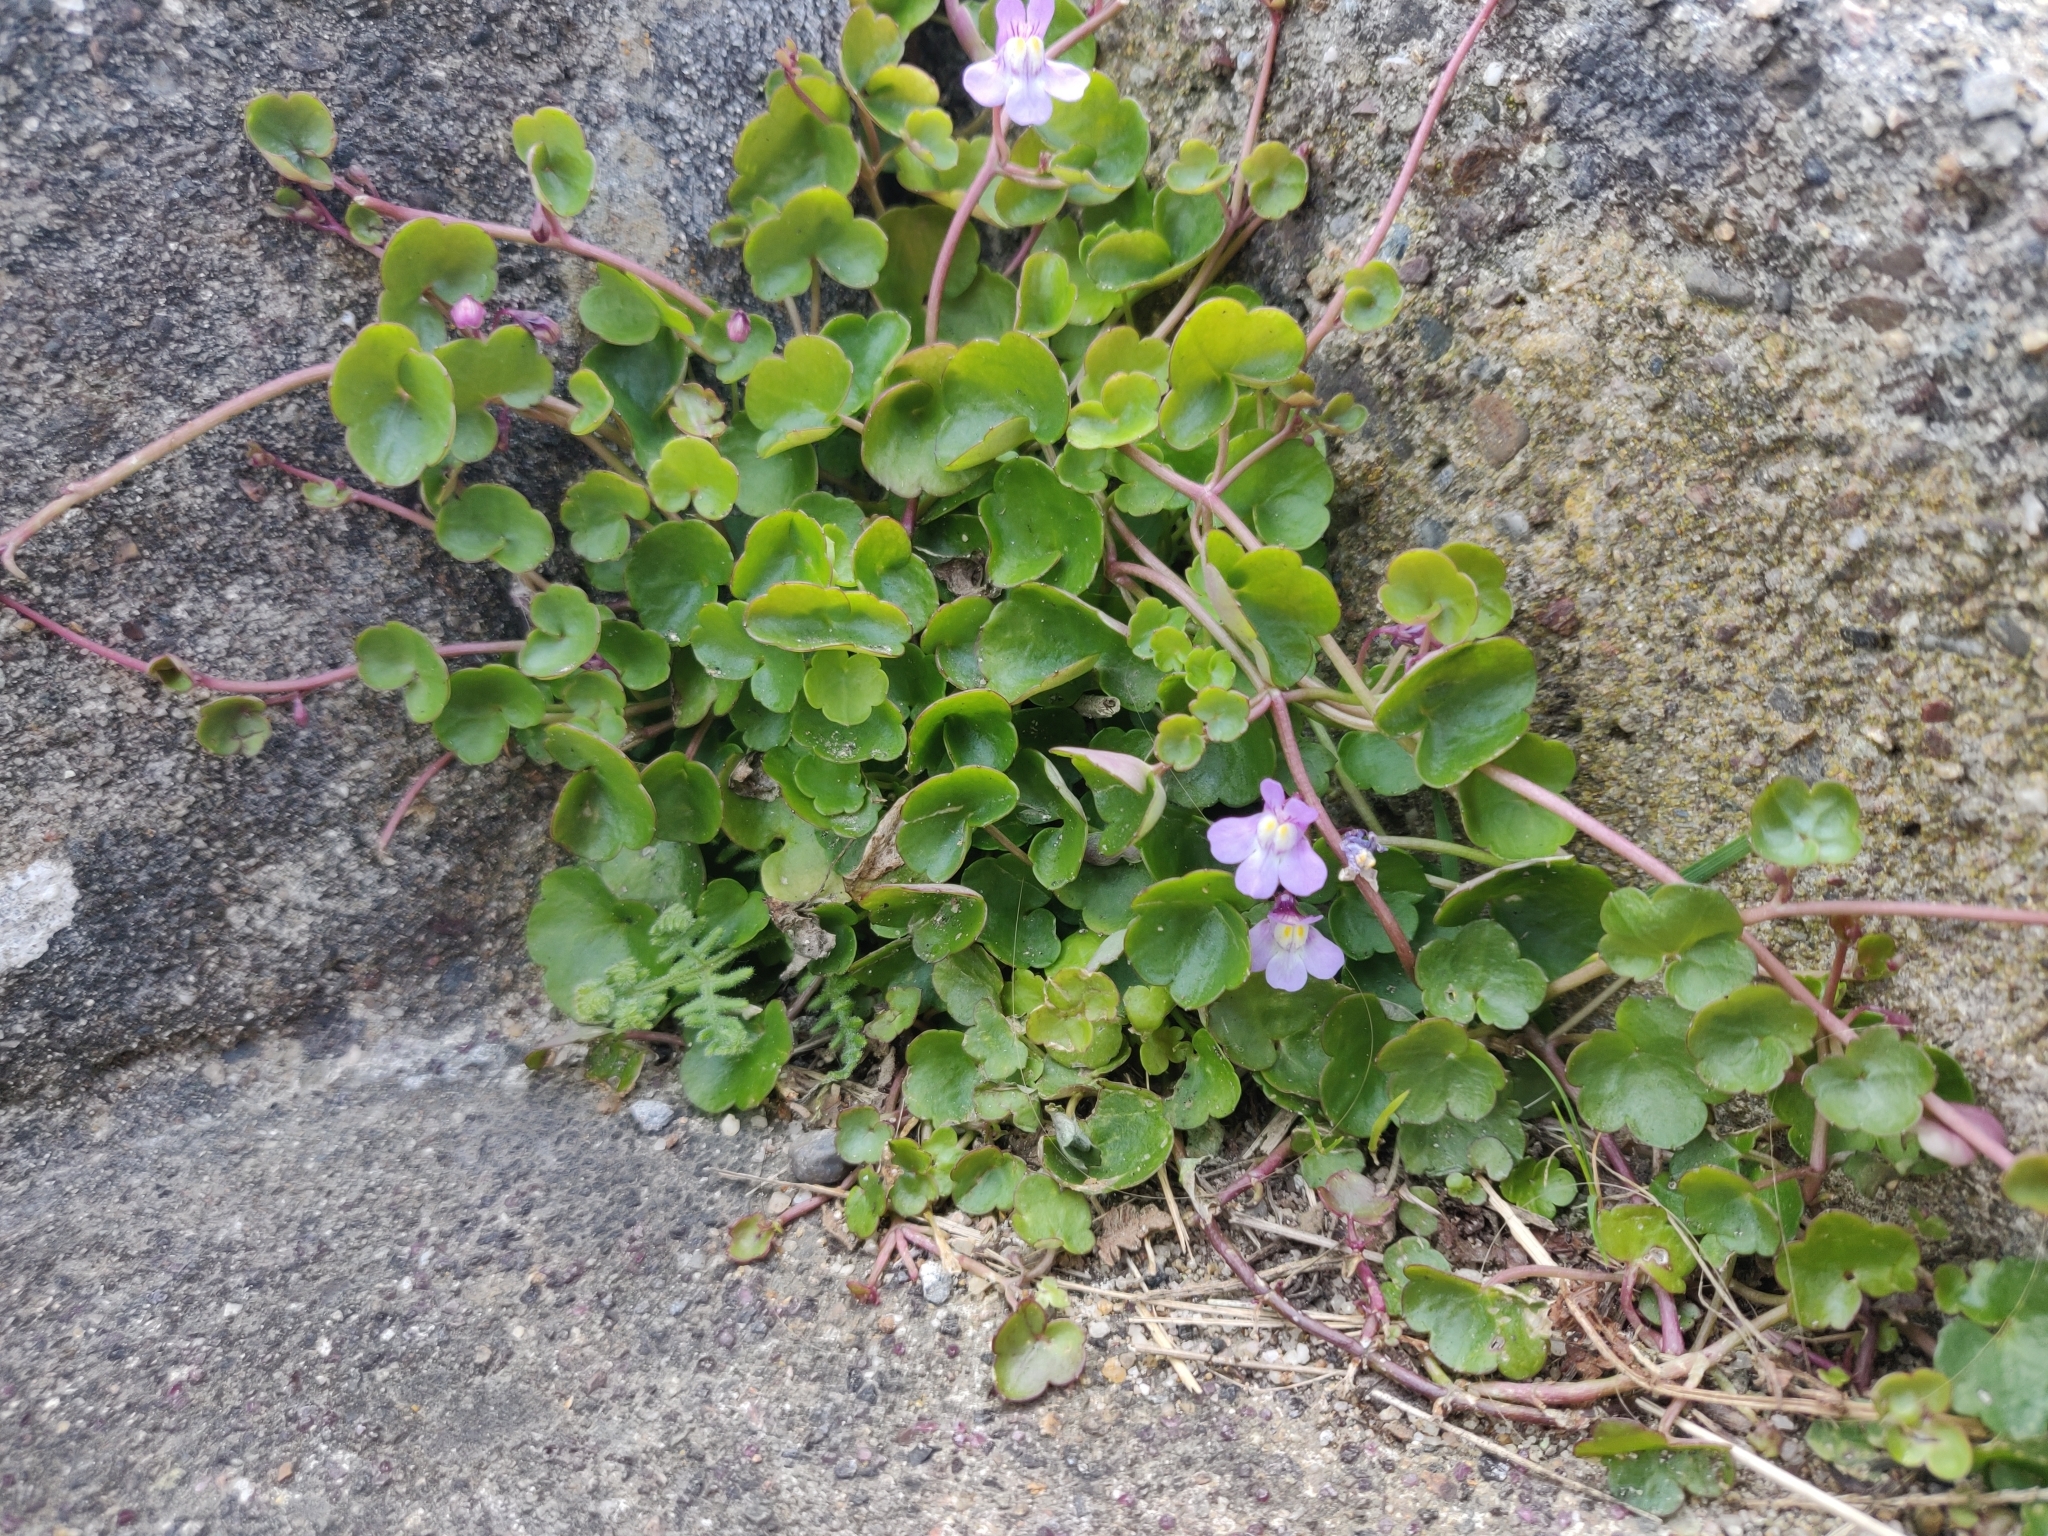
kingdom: Plantae
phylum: Tracheophyta
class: Magnoliopsida
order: Lamiales
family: Plantaginaceae
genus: Cymbalaria
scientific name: Cymbalaria muralis
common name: Ivy-leaved toadflax
